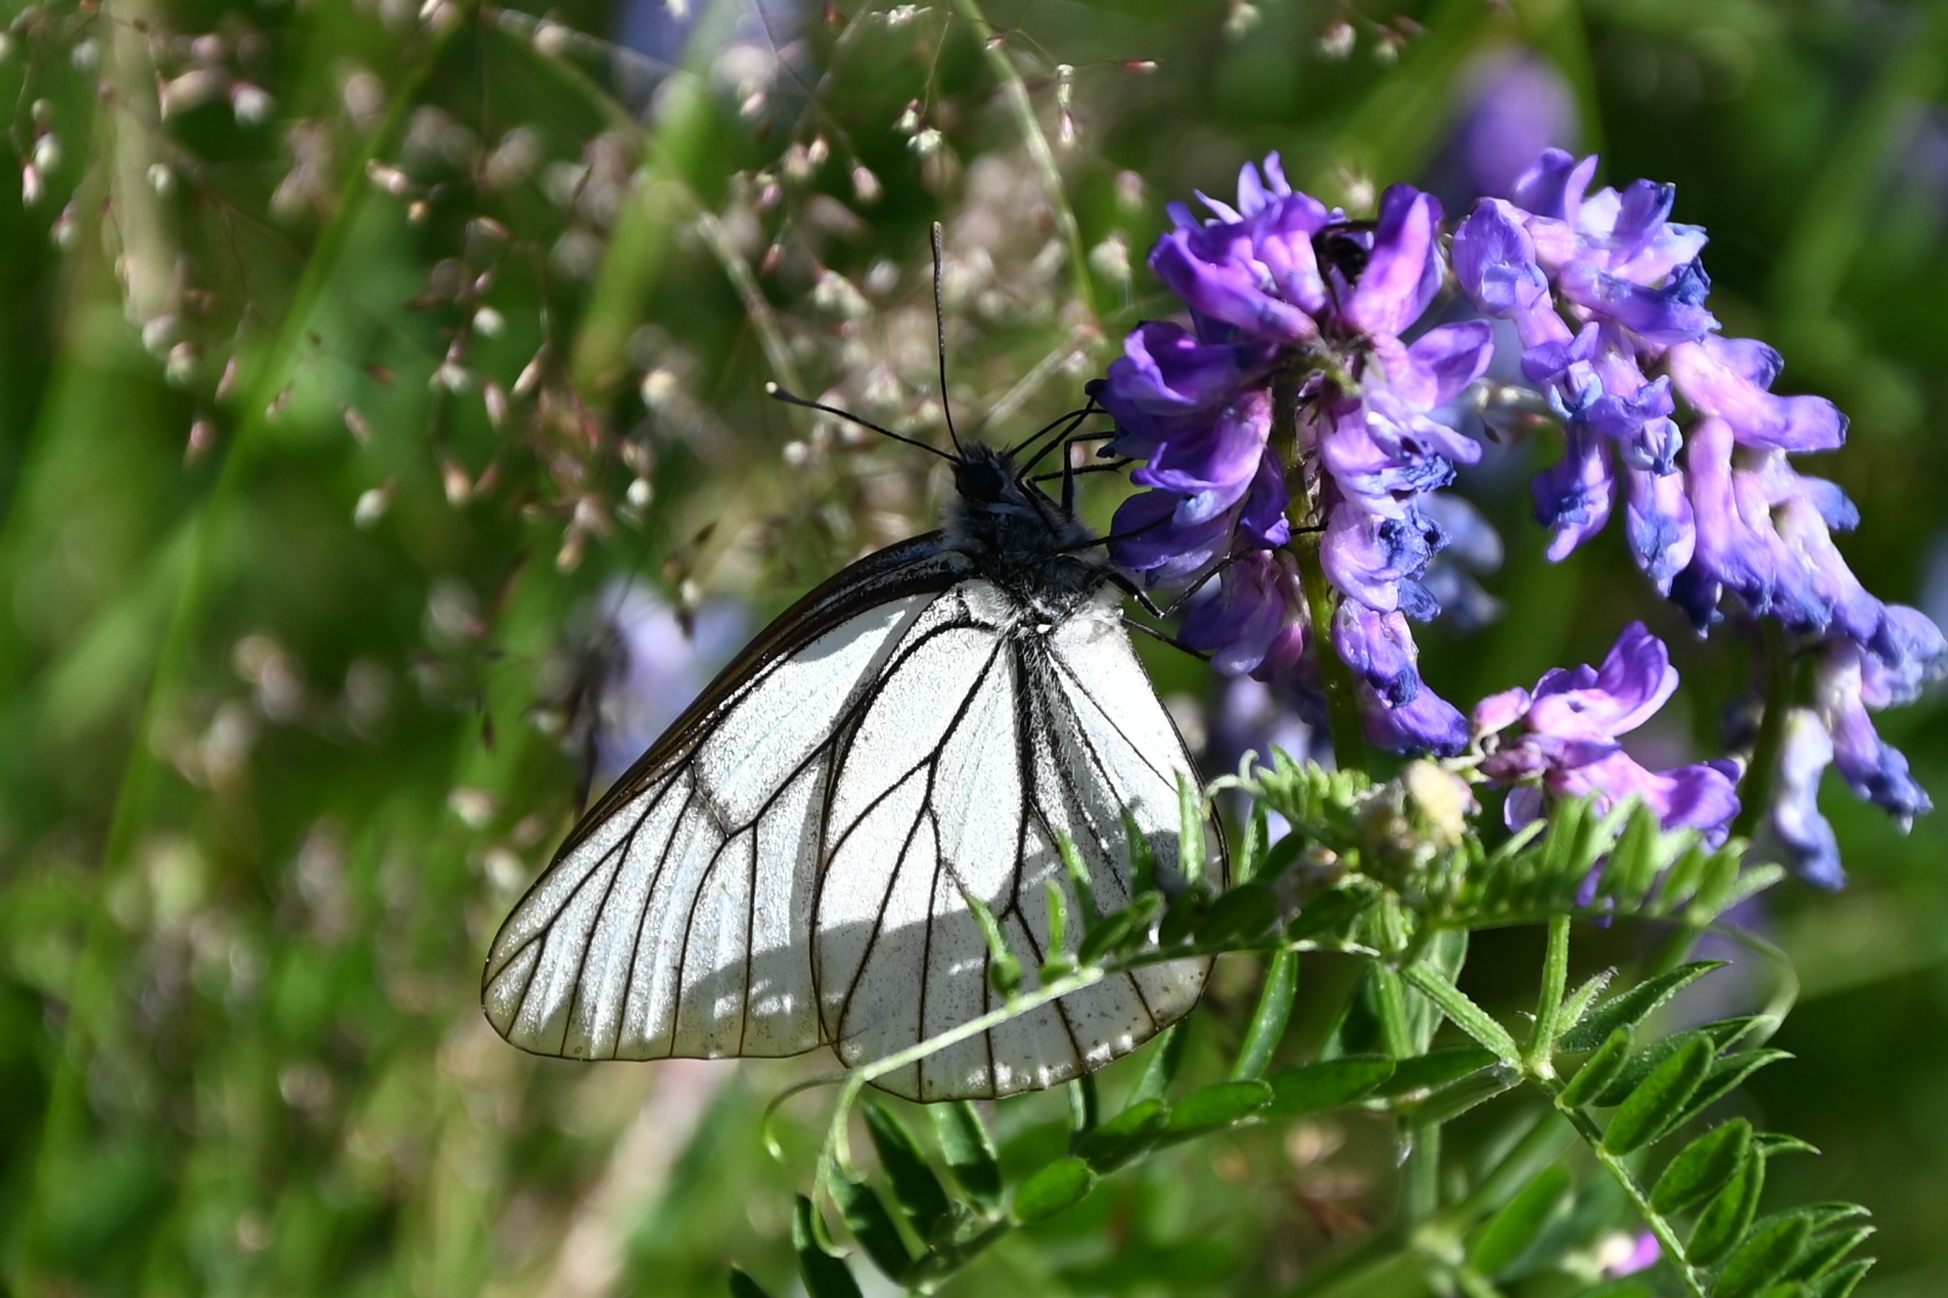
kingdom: Animalia
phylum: Arthropoda
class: Insecta
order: Lepidoptera
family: Pieridae
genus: Aporia
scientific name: Aporia crataegi
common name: Black-veined white
